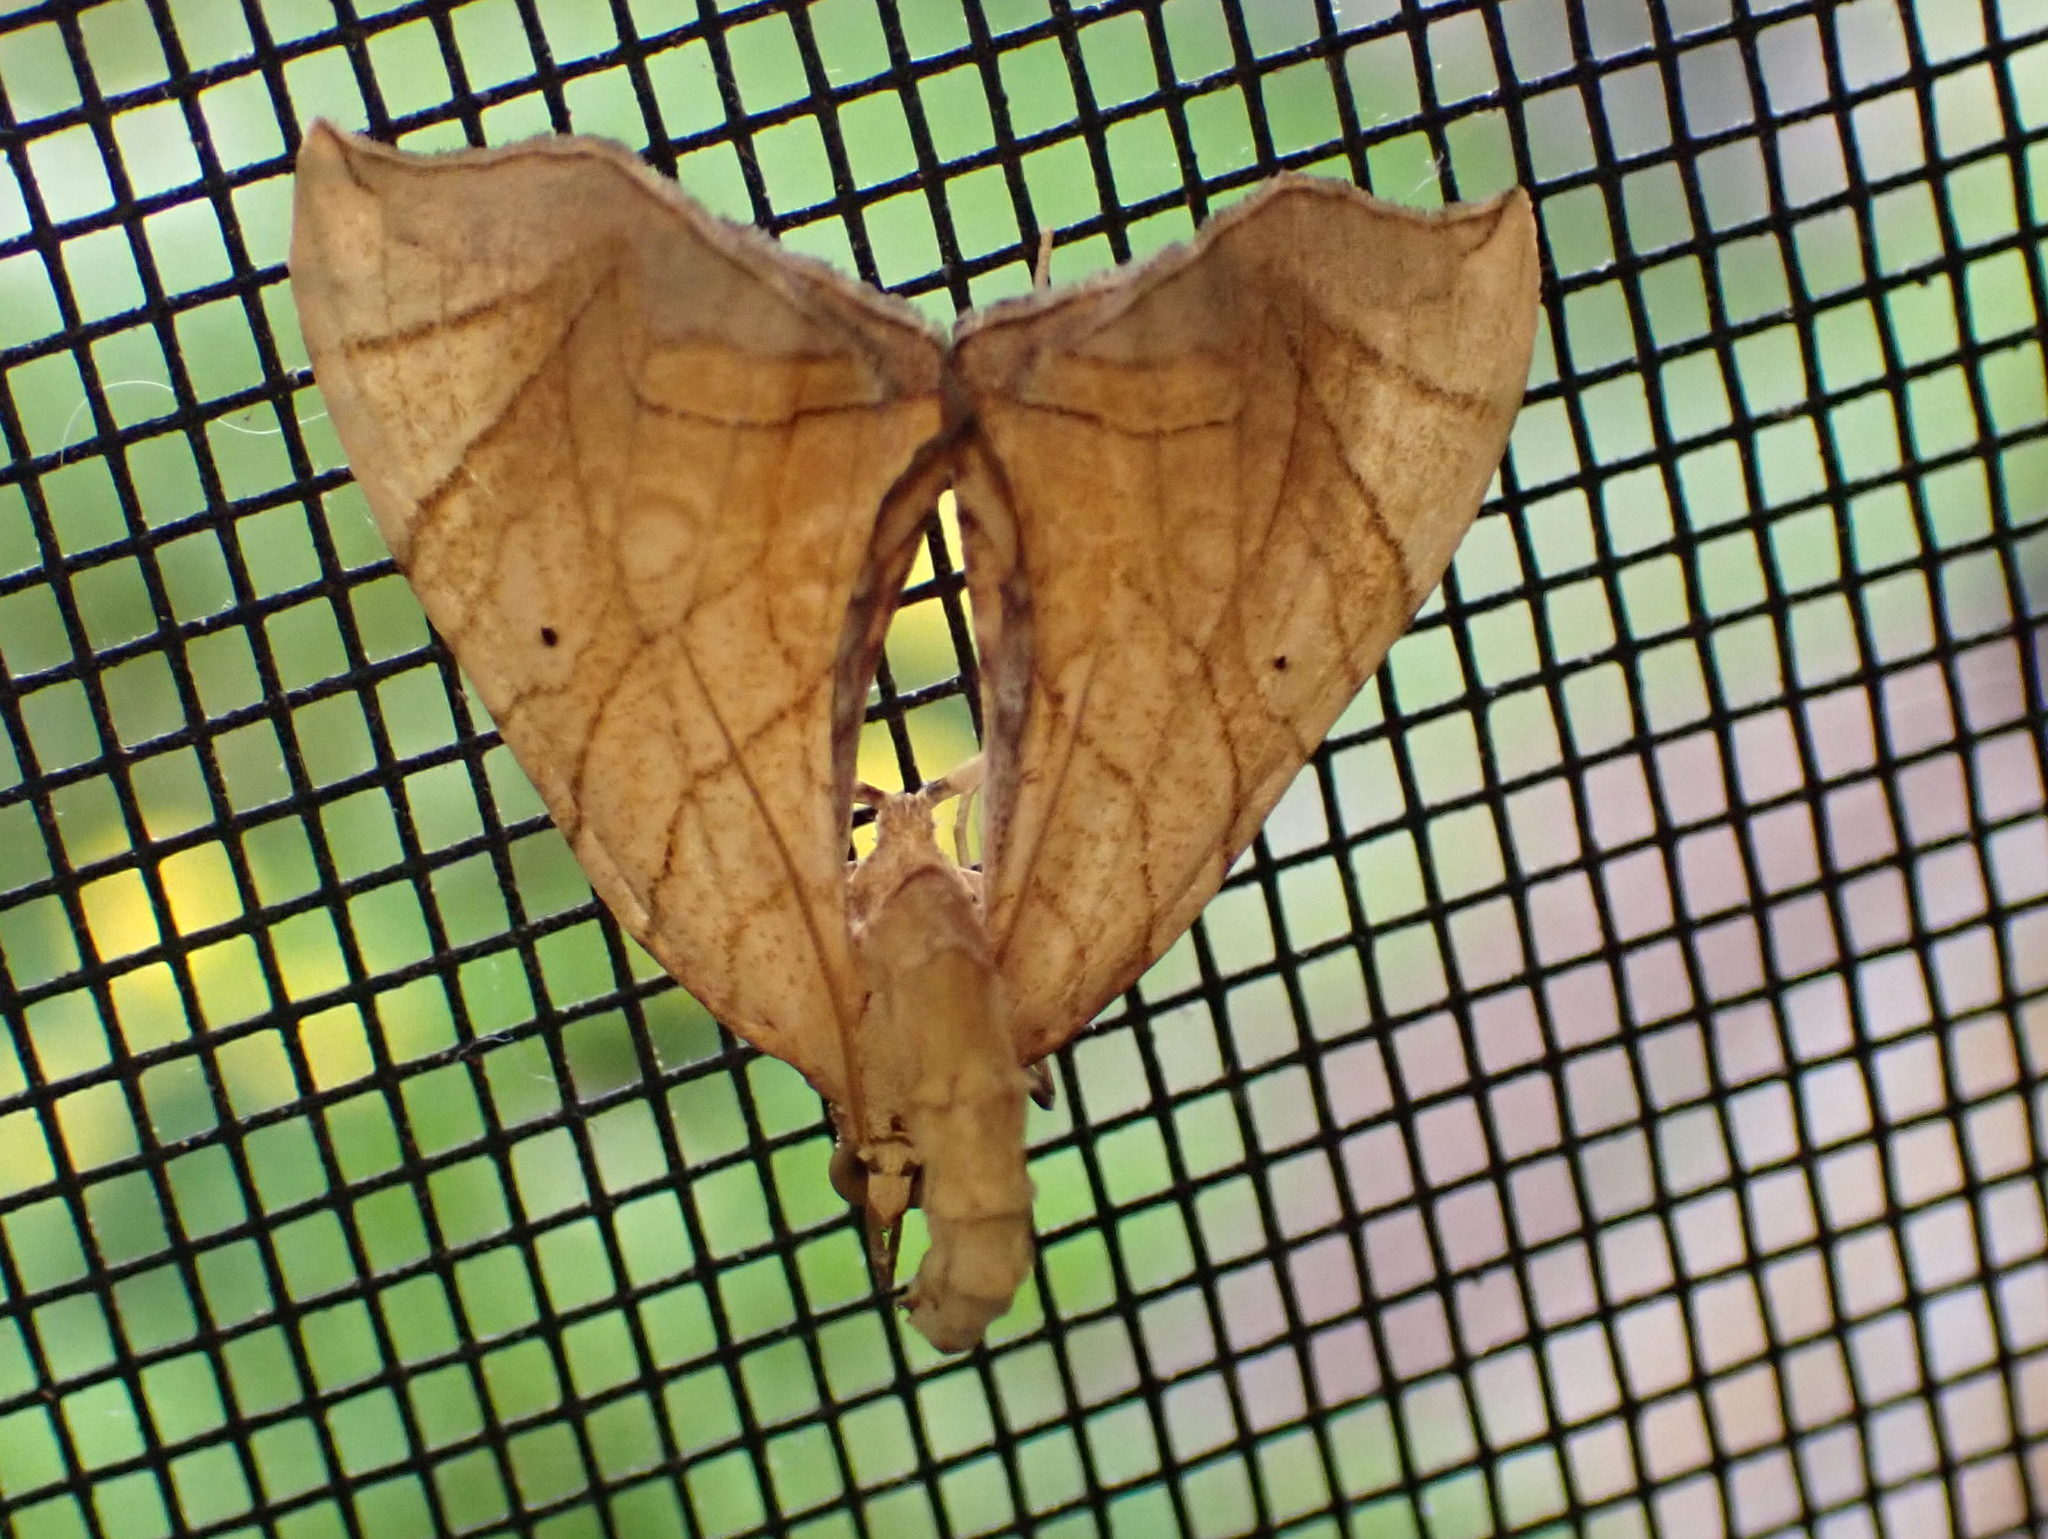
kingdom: Animalia
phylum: Arthropoda
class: Insecta
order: Lepidoptera
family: Geometridae
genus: Eulithis
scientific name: Eulithis
